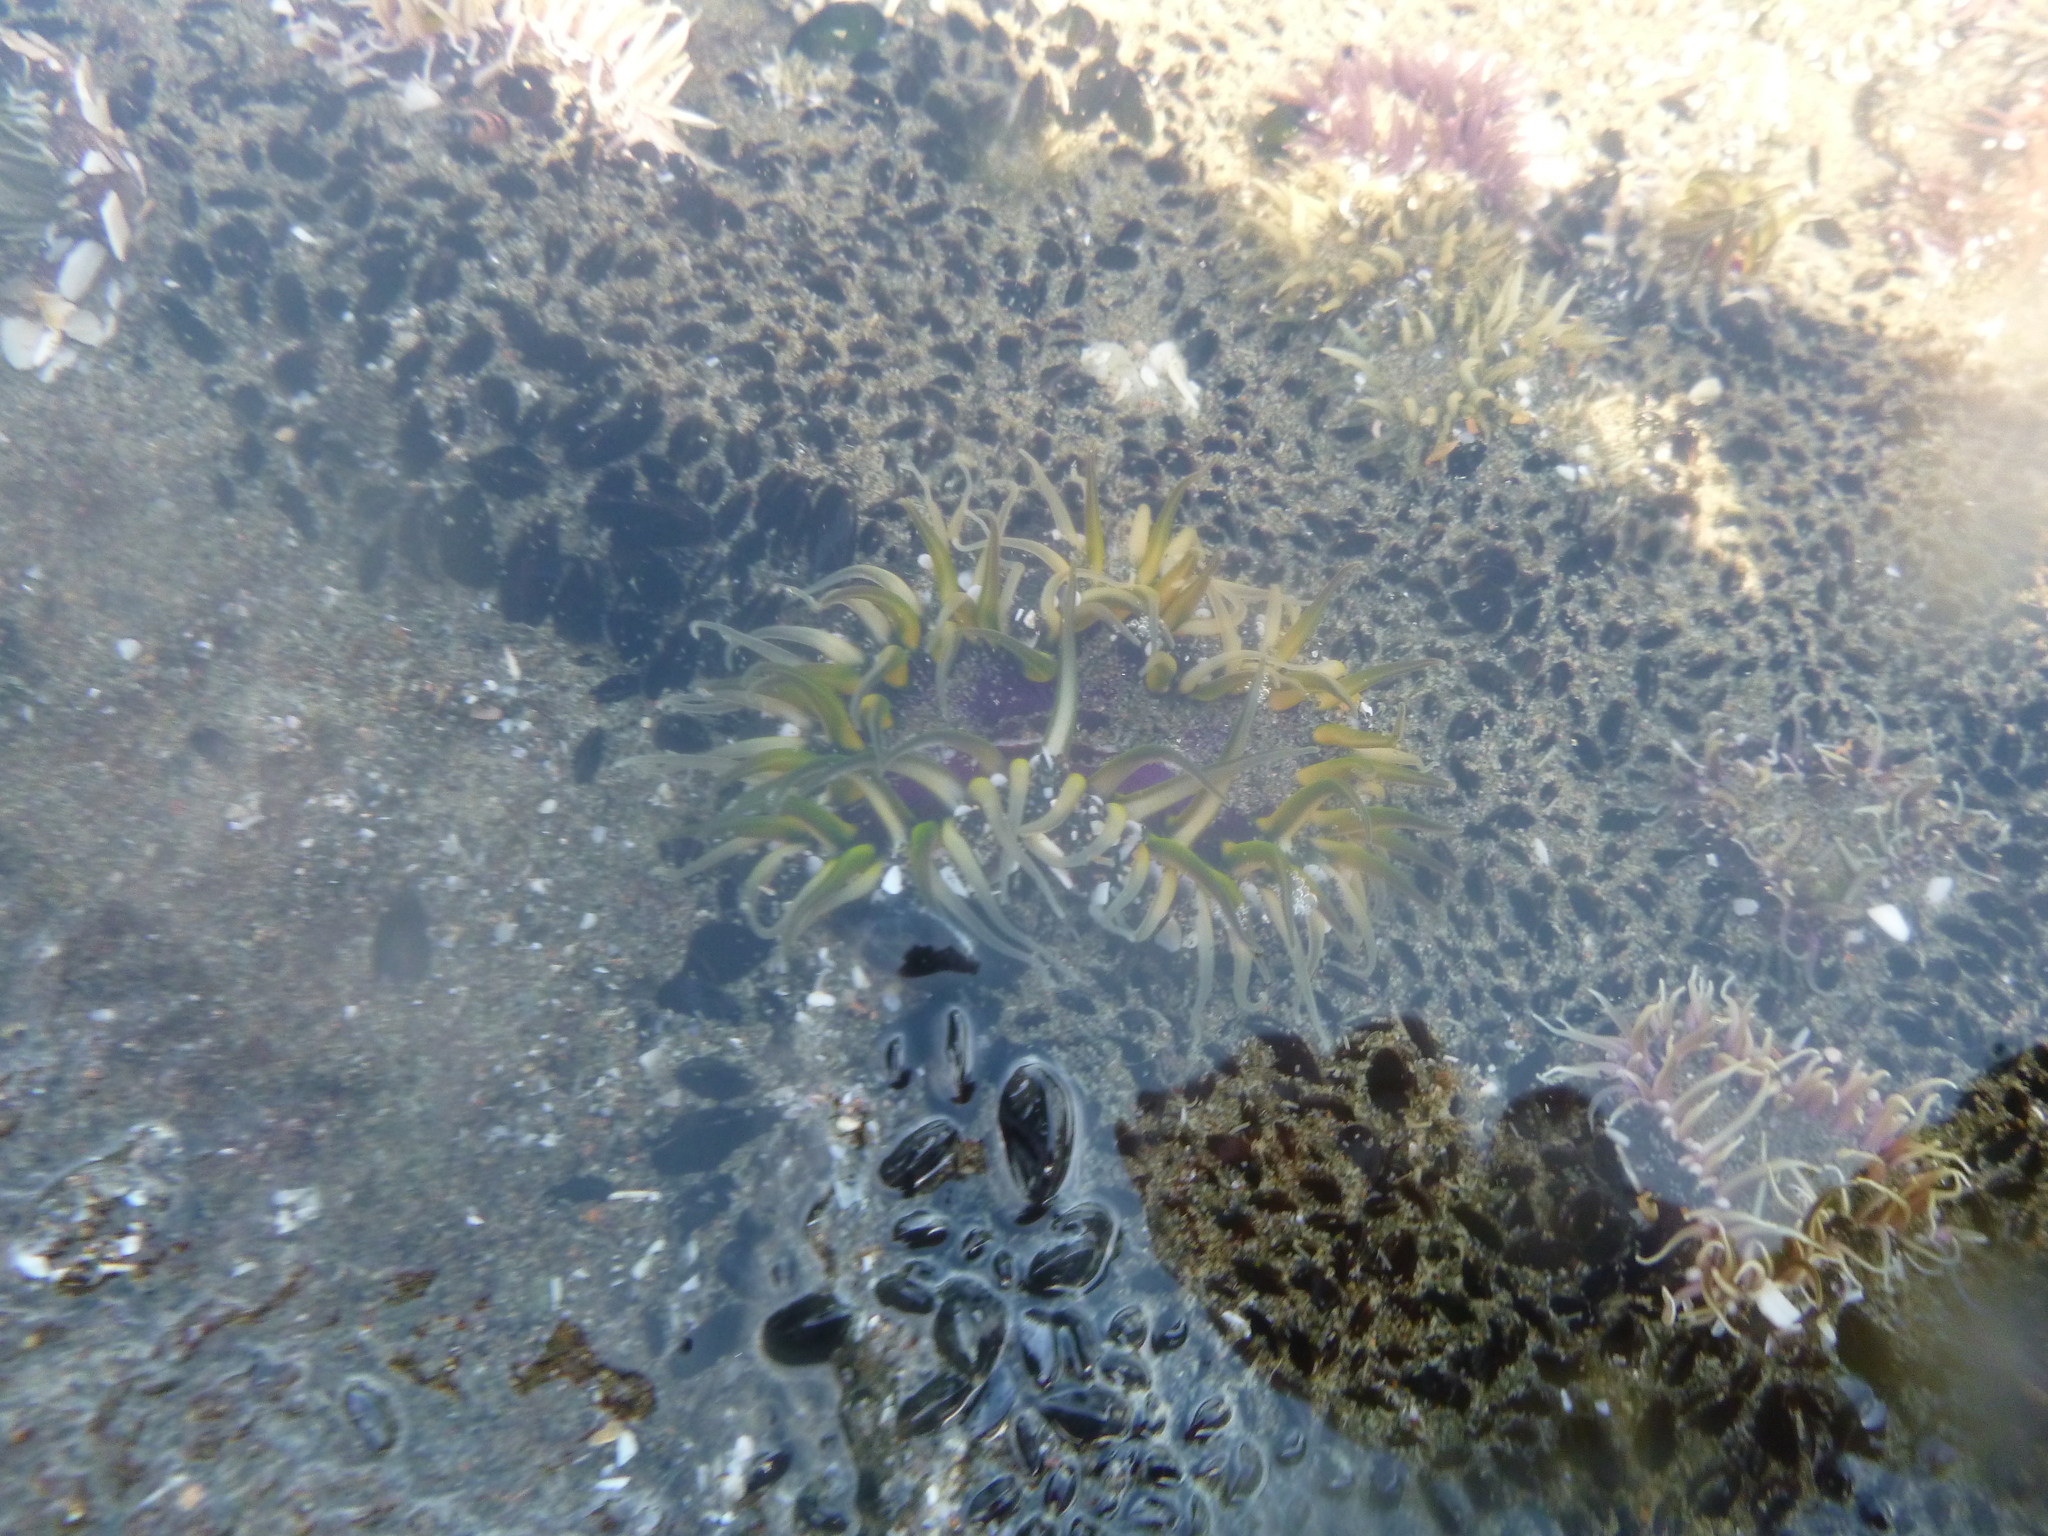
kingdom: Animalia
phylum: Cnidaria
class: Anthozoa
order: Actiniaria
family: Actiniidae
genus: Oulactis
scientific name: Oulactis magna
